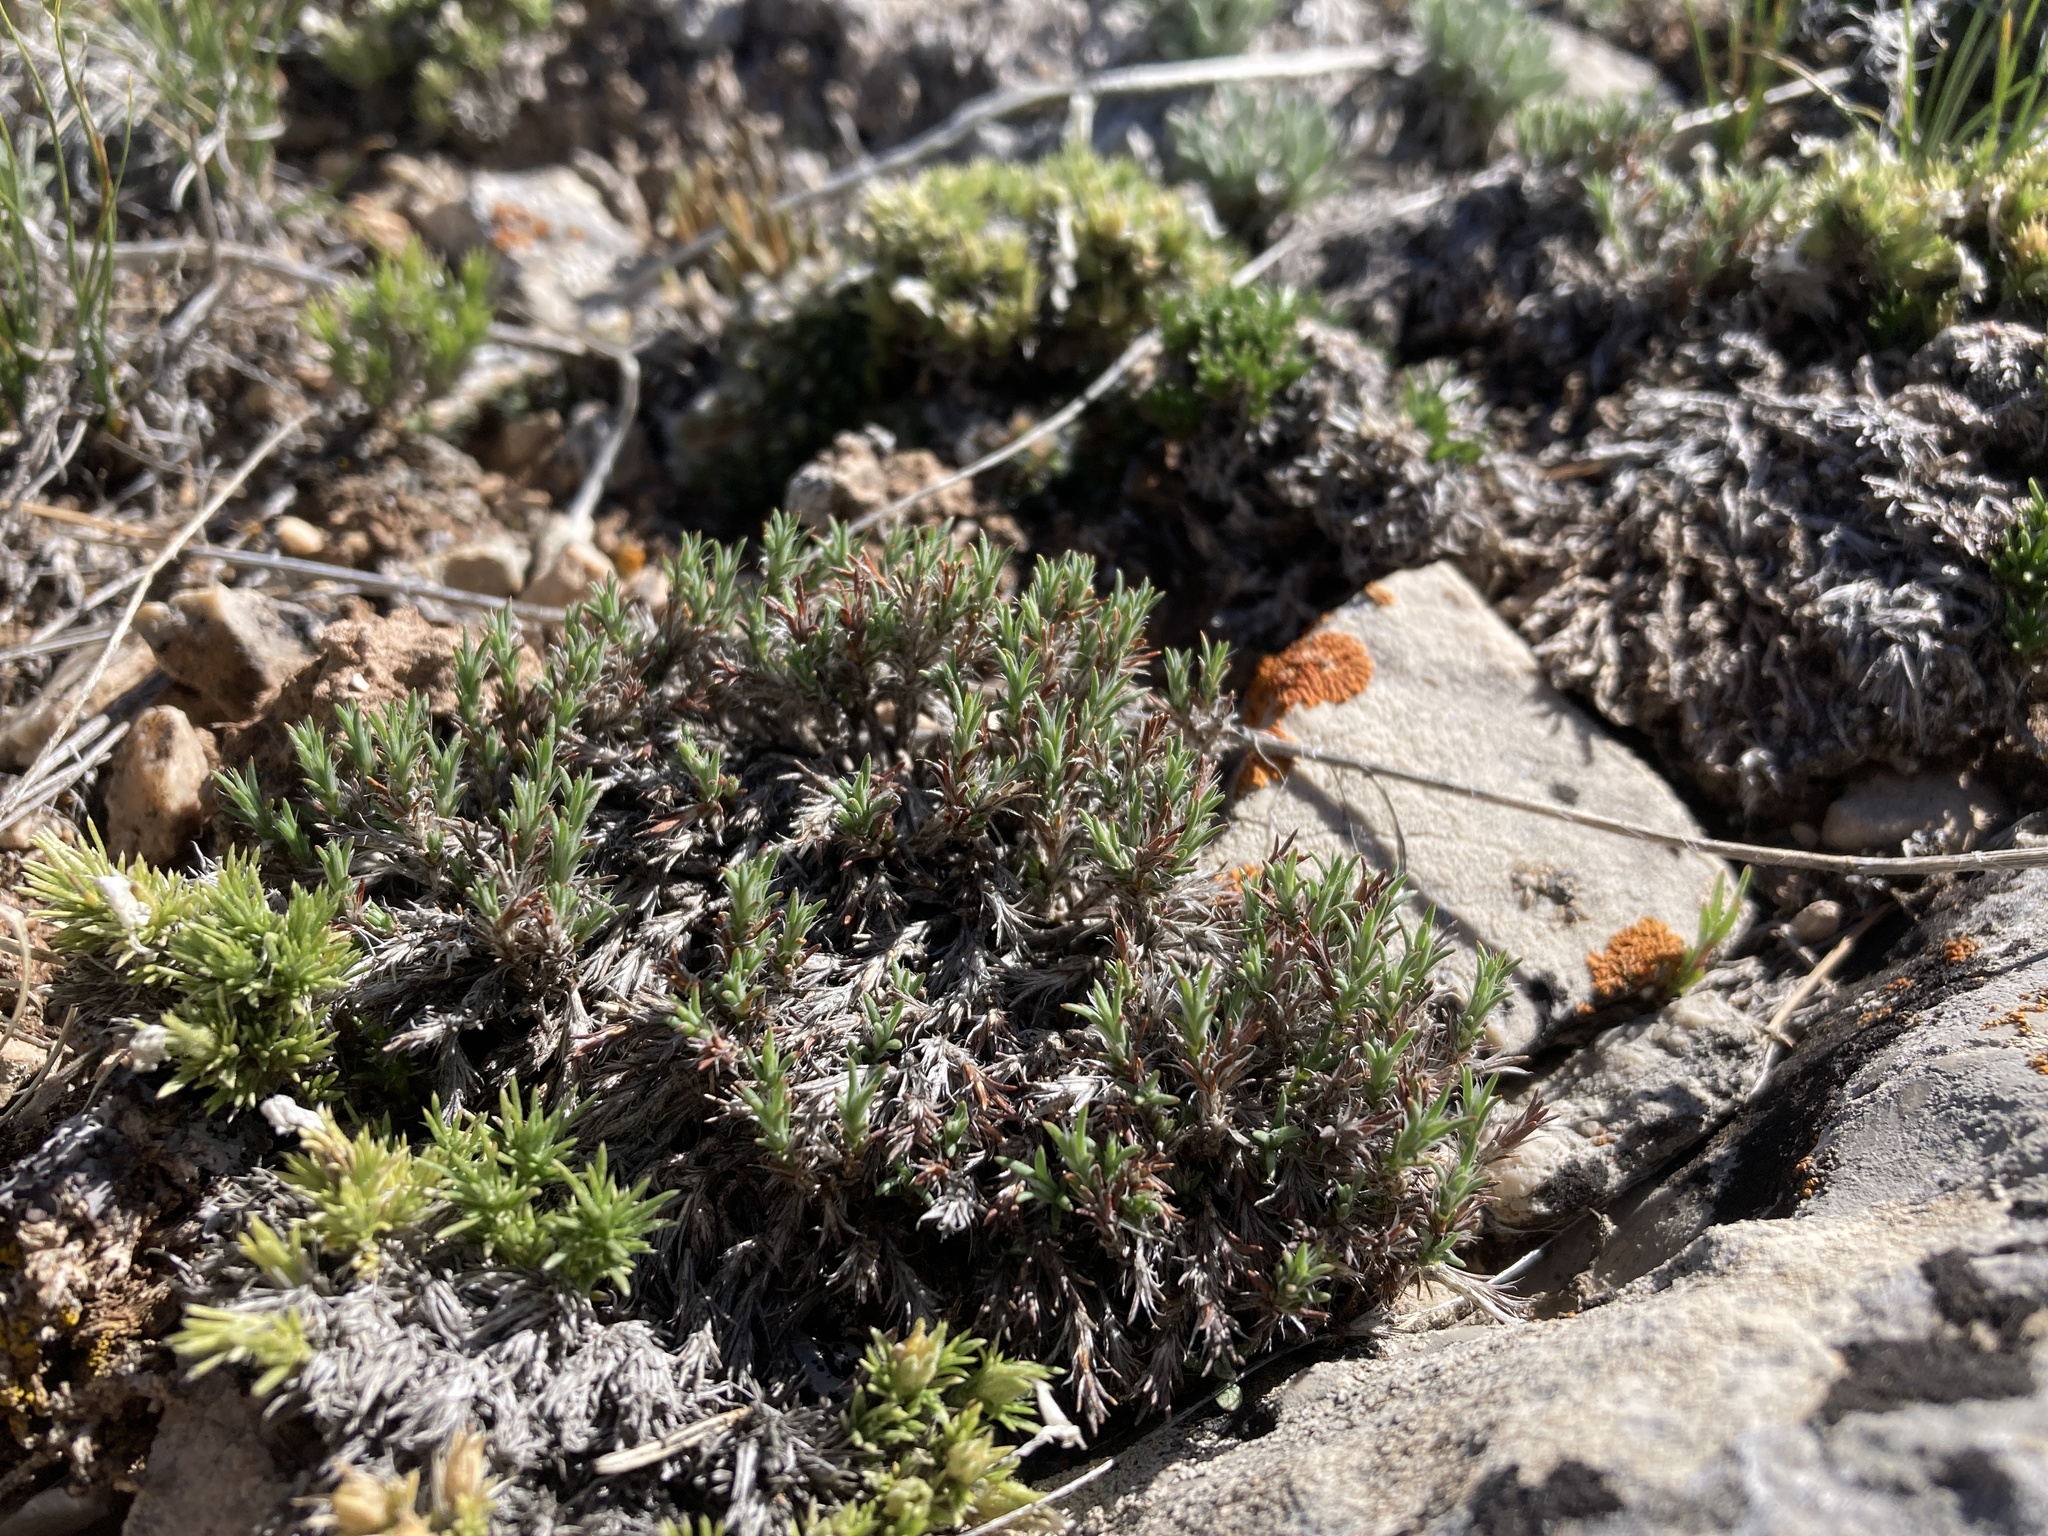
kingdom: Plantae
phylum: Tracheophyta
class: Magnoliopsida
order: Caryophyllales
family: Caryophyllaceae
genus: Paronychia
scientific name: Paronychia sessiliflora
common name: Creeping nailwort
